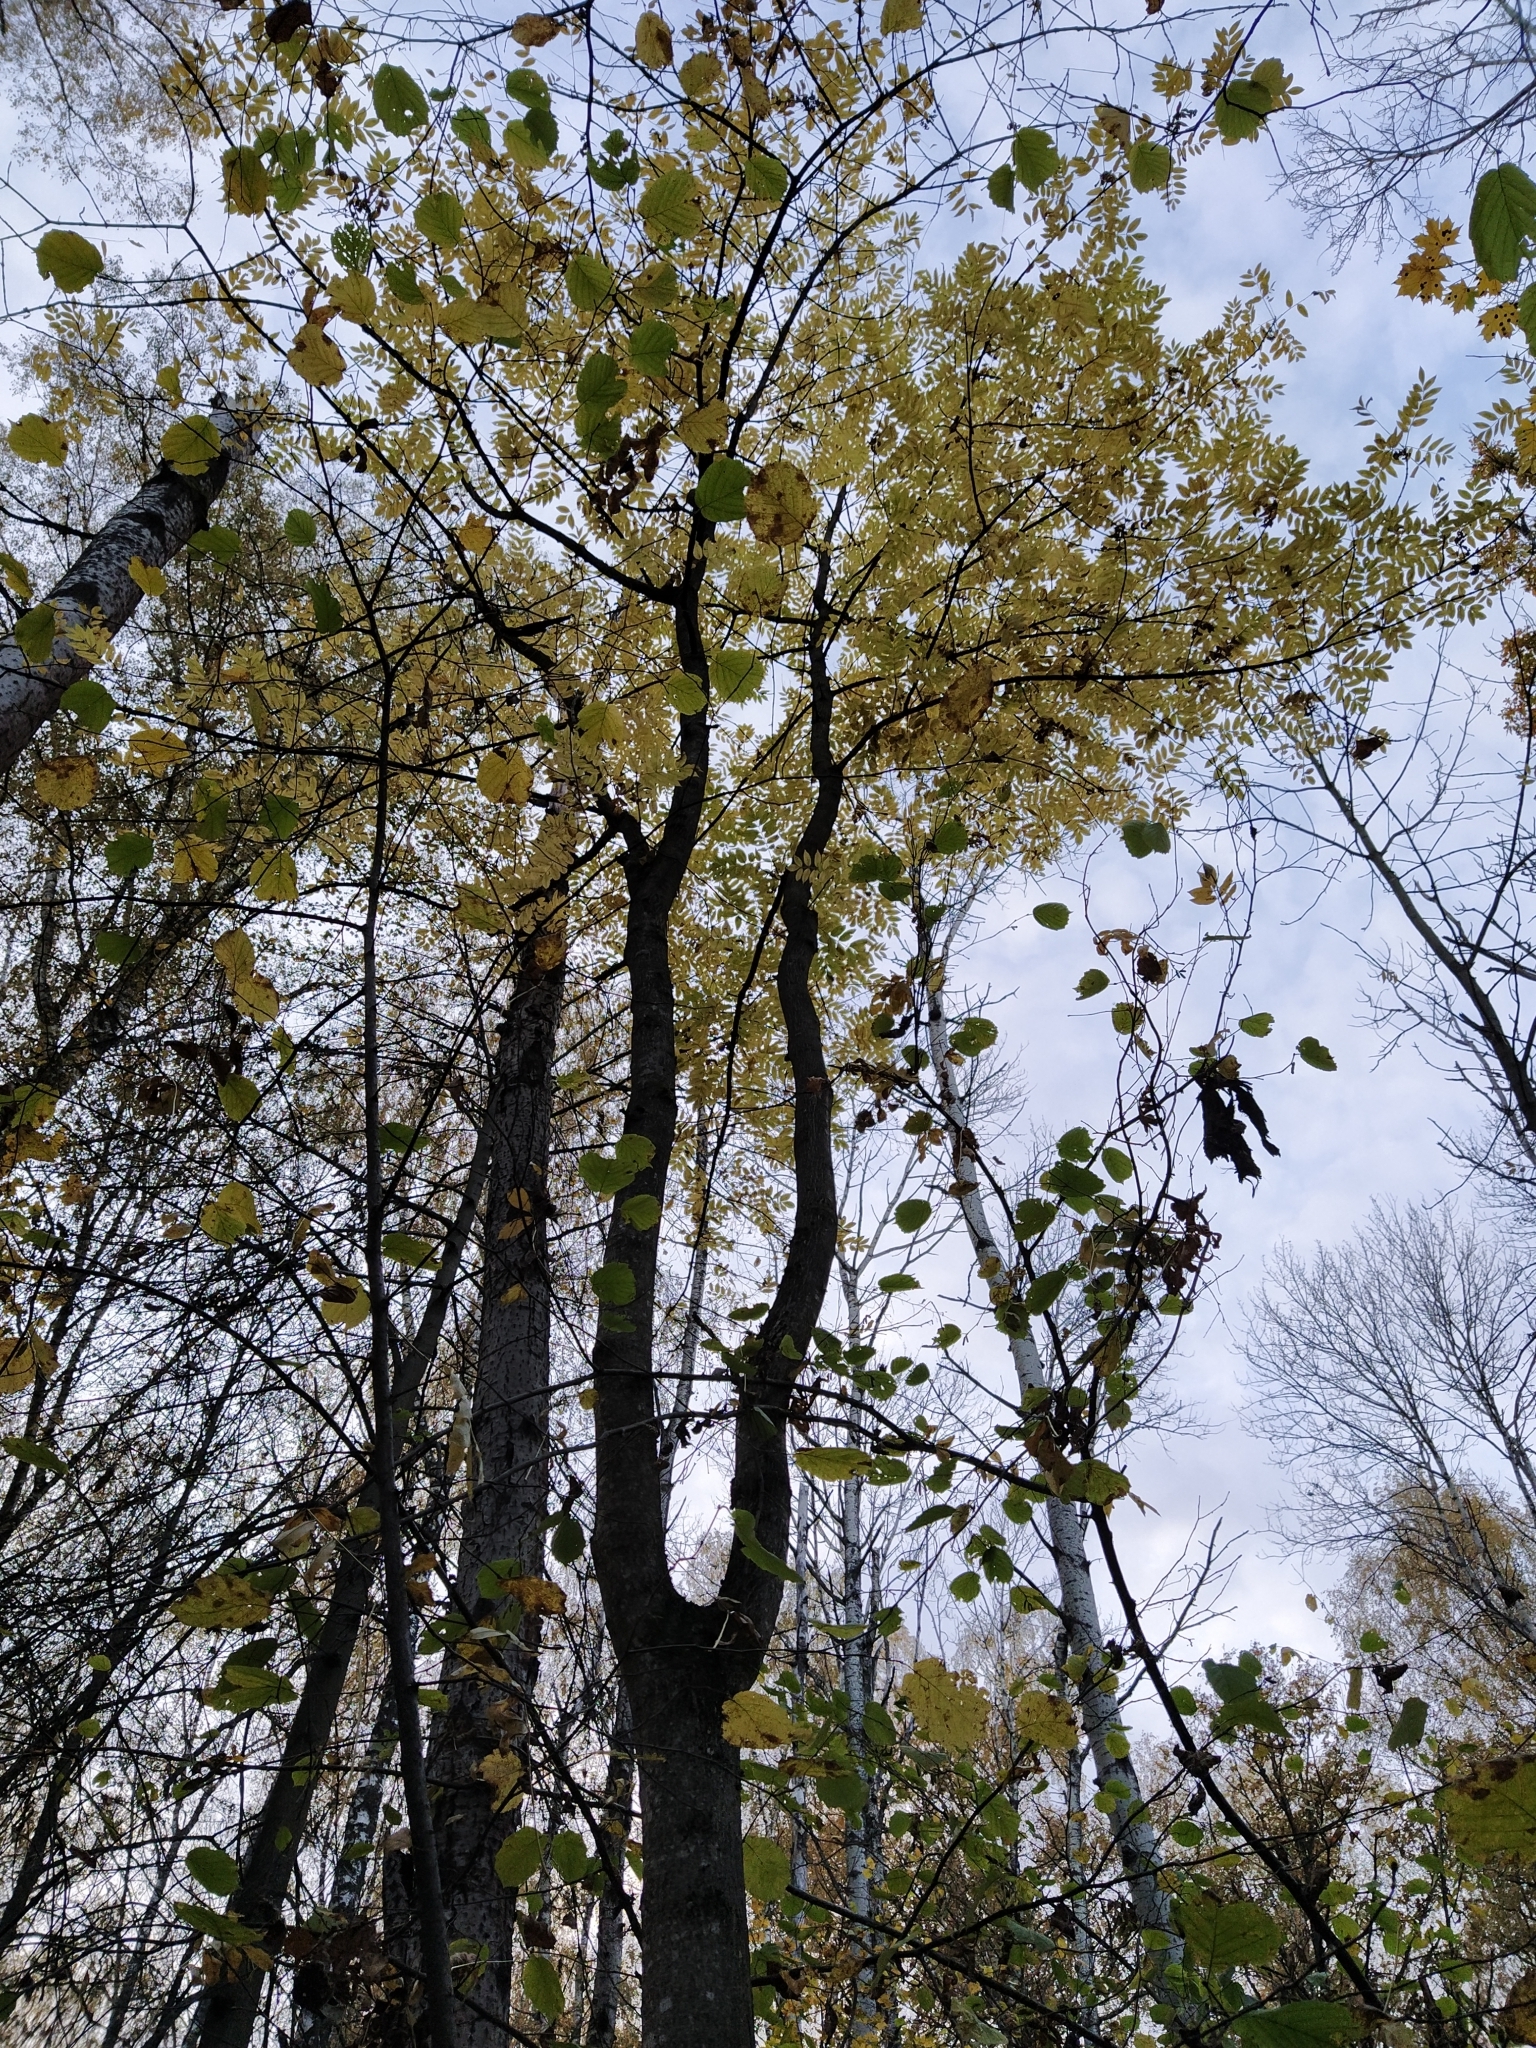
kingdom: Plantae
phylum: Tracheophyta
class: Magnoliopsida
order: Lamiales
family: Oleaceae
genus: Fraxinus
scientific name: Fraxinus excelsior
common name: European ash
